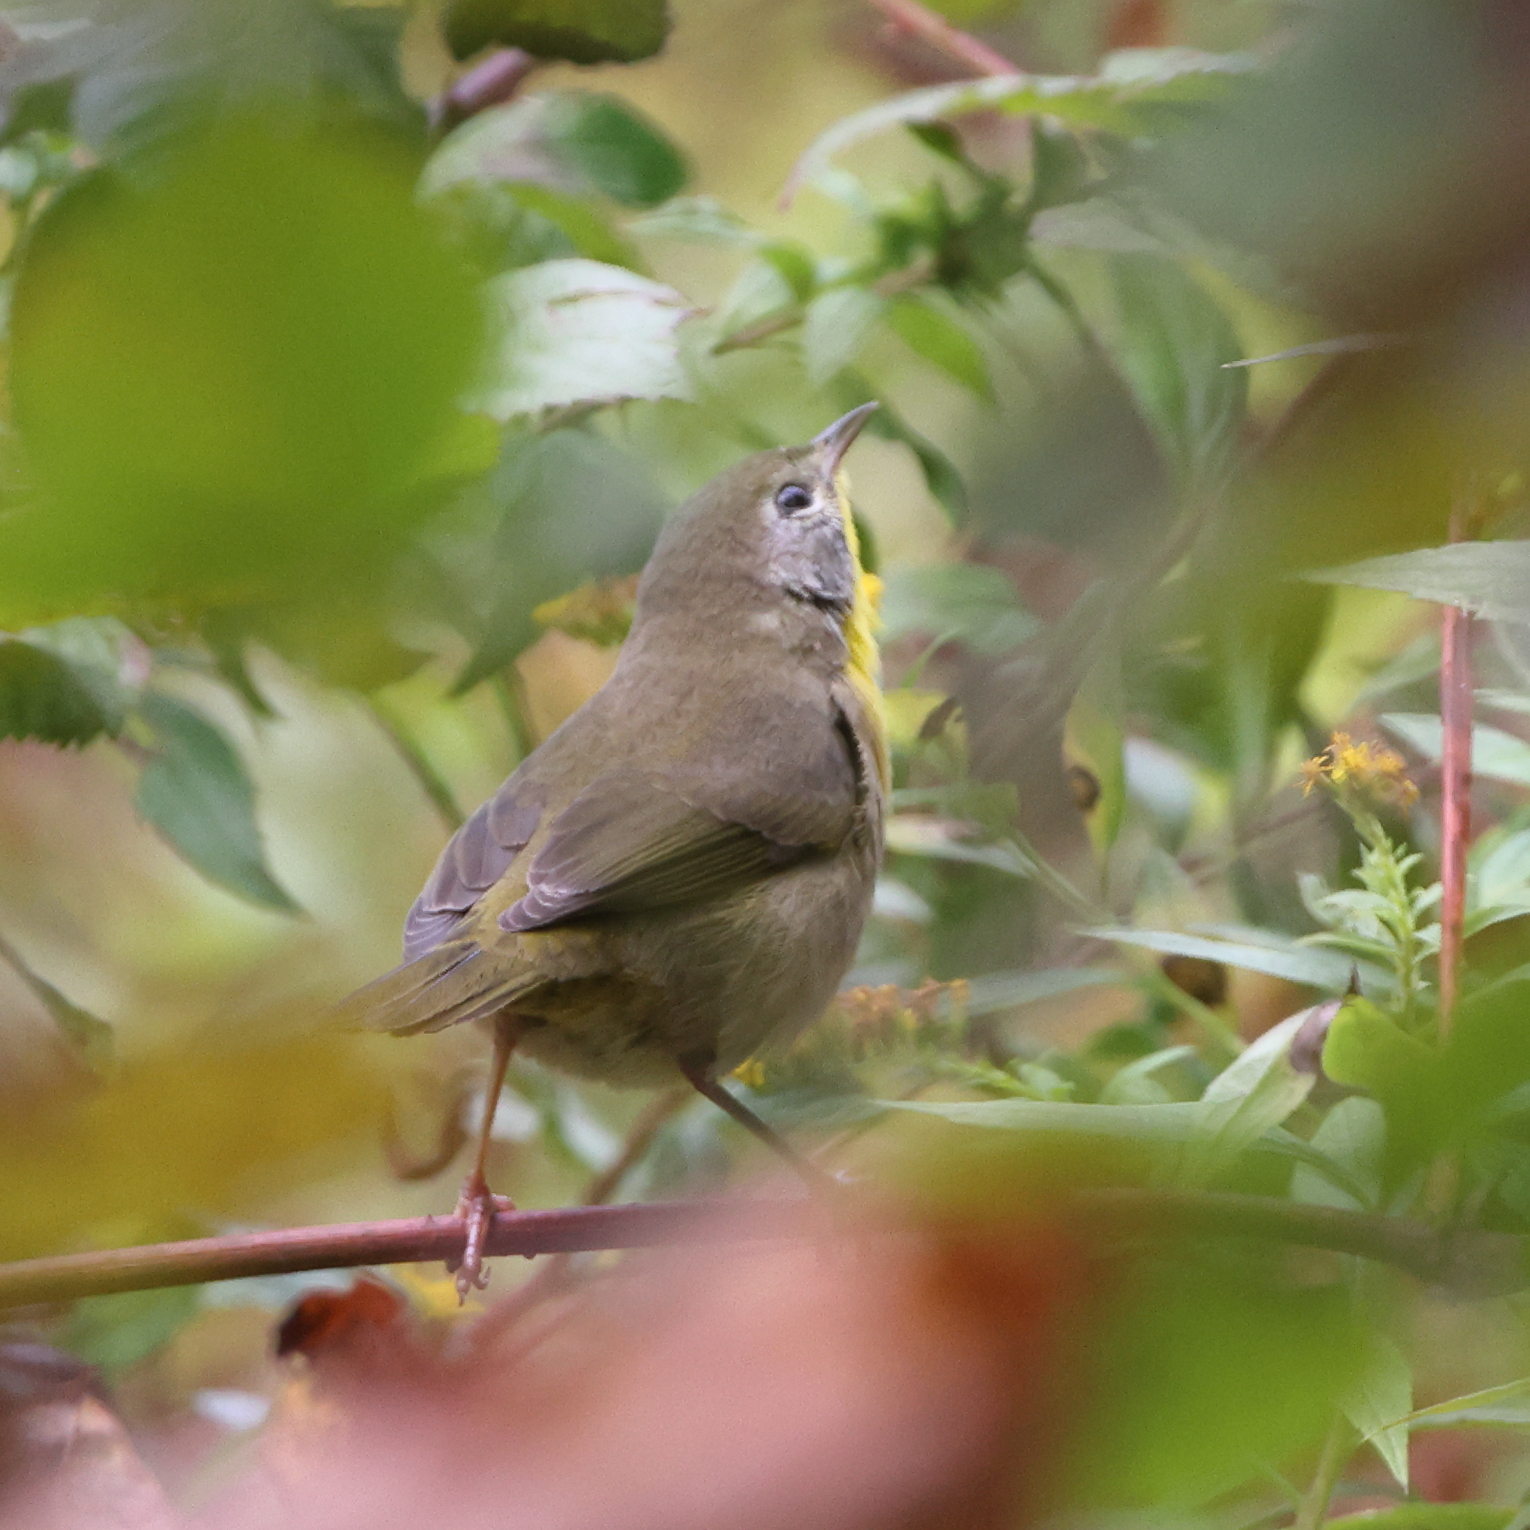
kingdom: Animalia
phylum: Chordata
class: Aves
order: Passeriformes
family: Parulidae
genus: Geothlypis
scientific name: Geothlypis trichas
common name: Common yellowthroat
